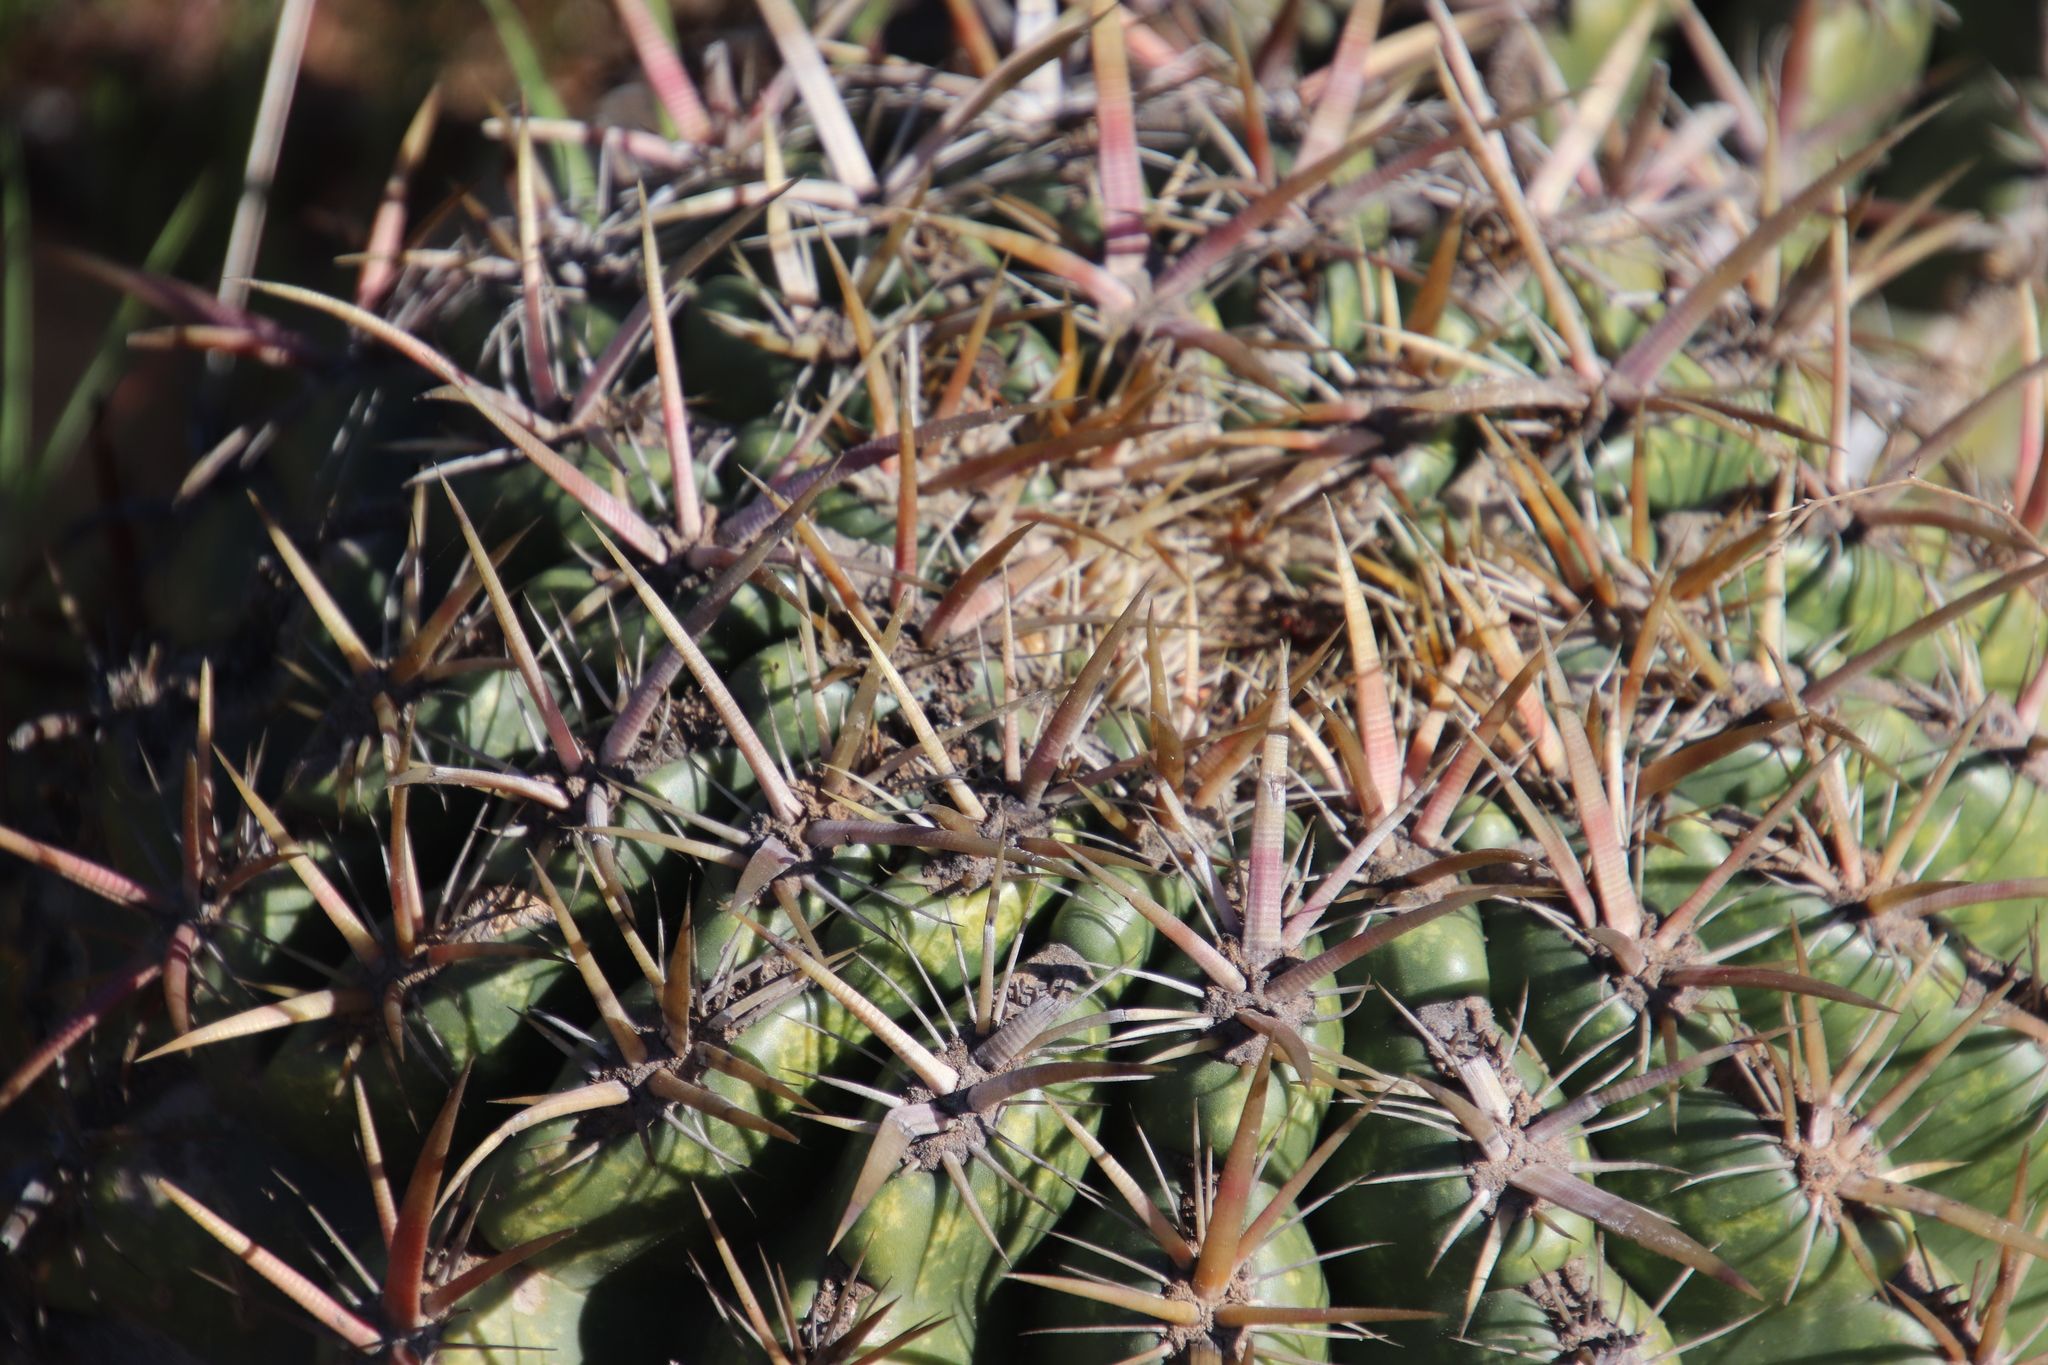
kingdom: Plantae
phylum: Tracheophyta
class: Magnoliopsida
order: Caryophyllales
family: Cactaceae
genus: Ferocactus
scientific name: Ferocactus viridescens
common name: San diego barrel cactus
